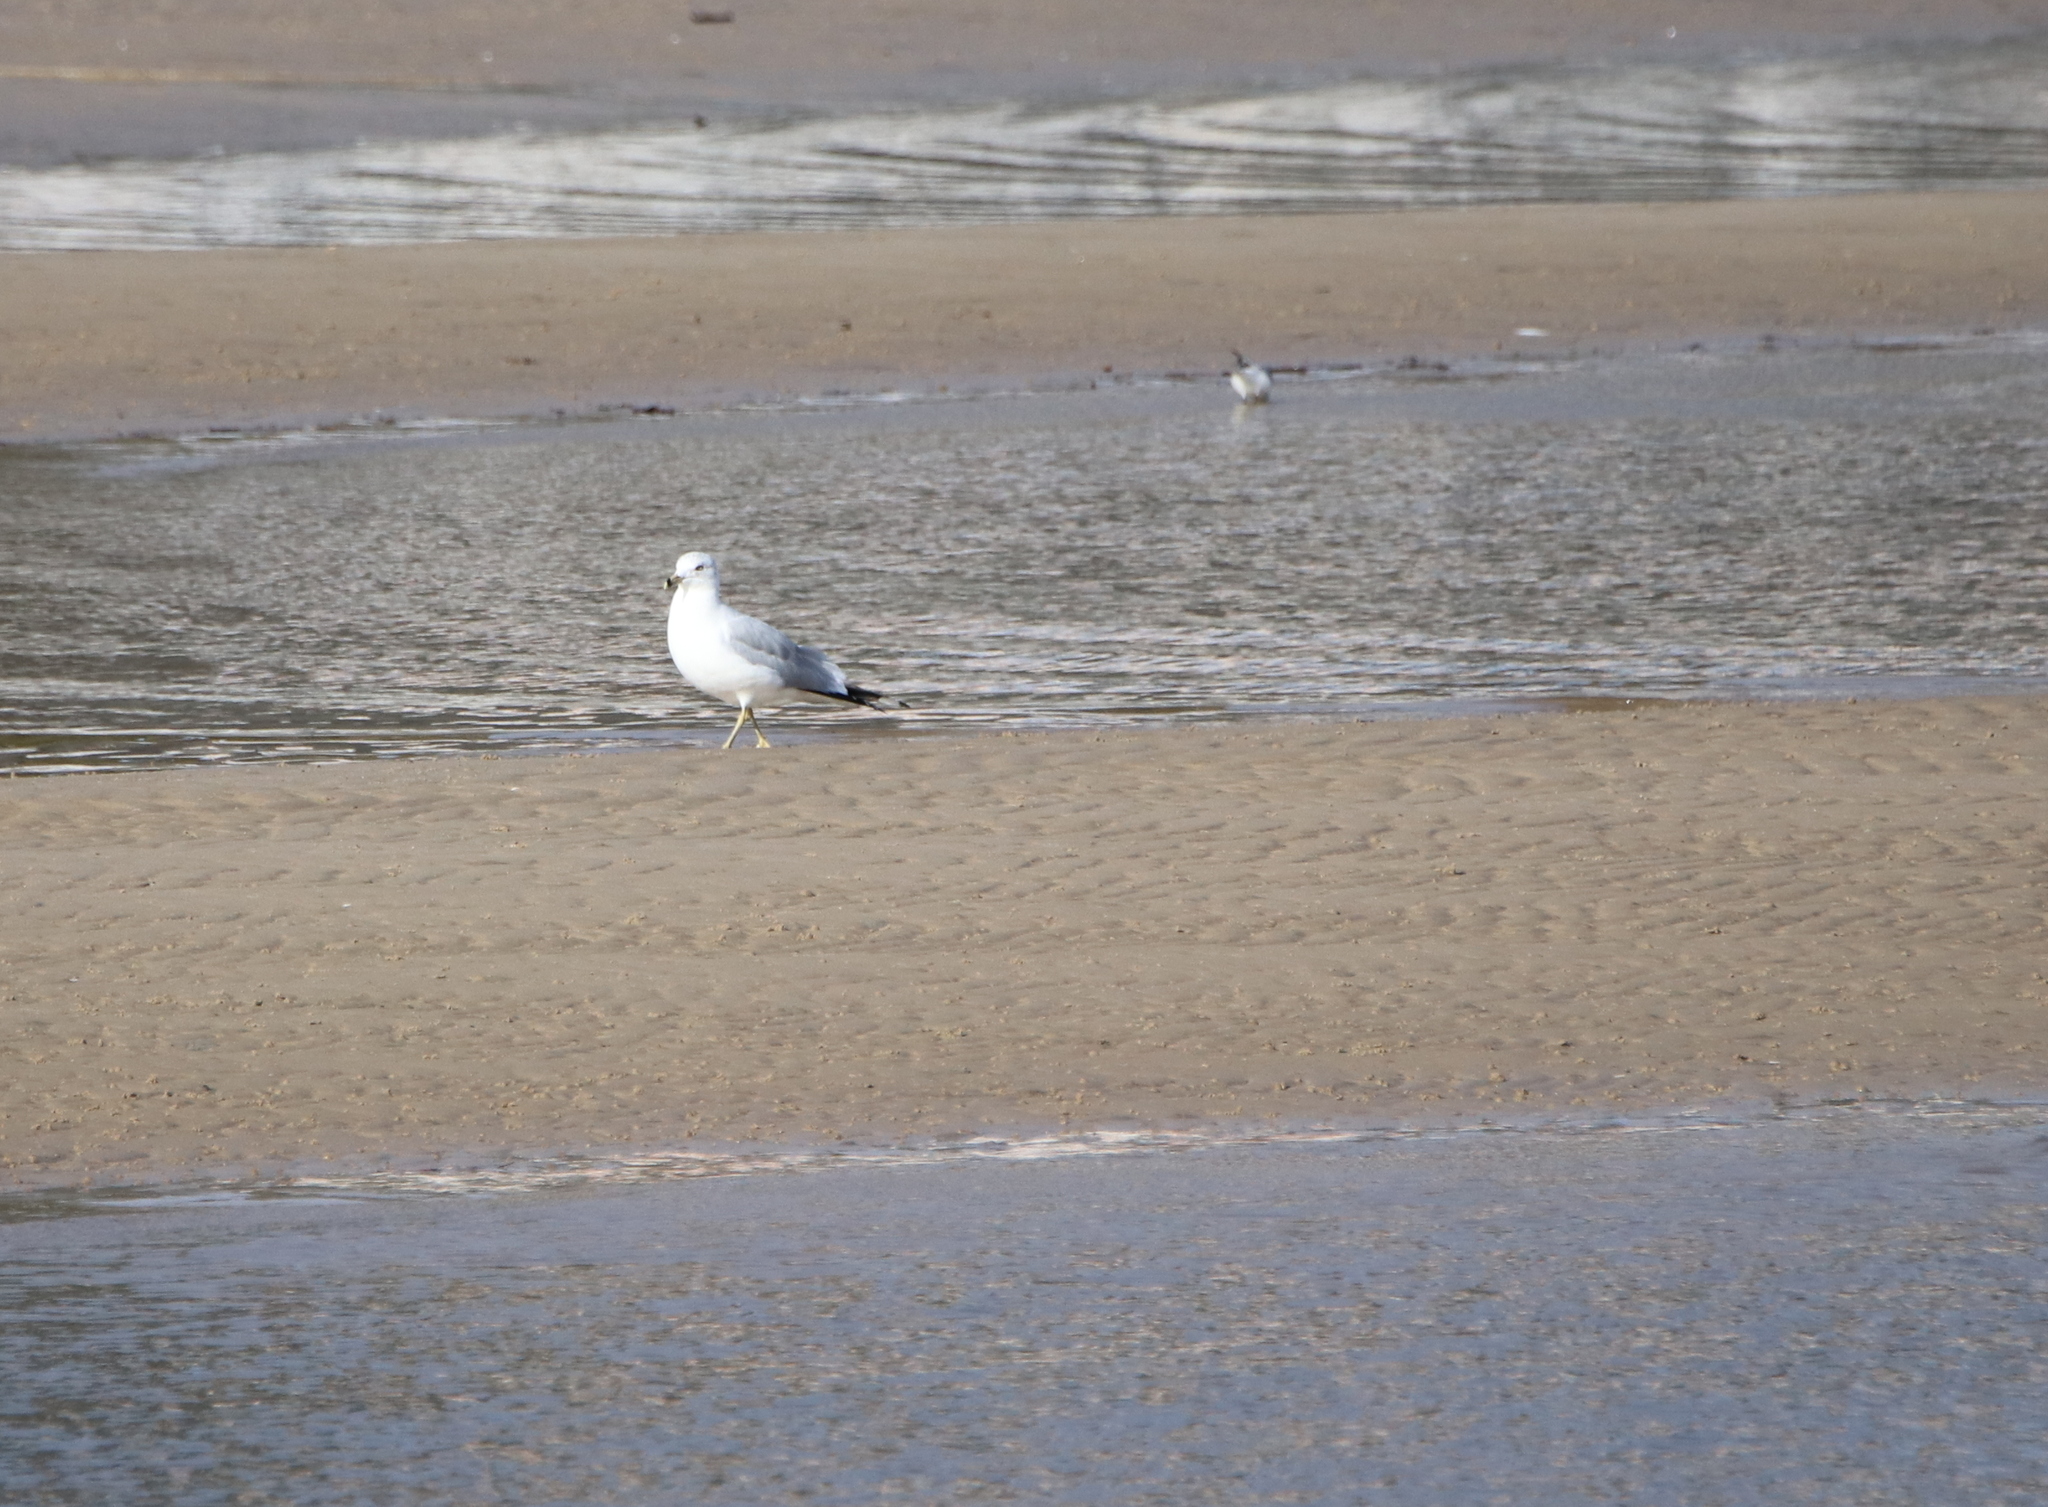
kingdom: Animalia
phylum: Chordata
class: Aves
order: Charadriiformes
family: Laridae
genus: Larus
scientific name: Larus delawarensis
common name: Ring-billed gull
